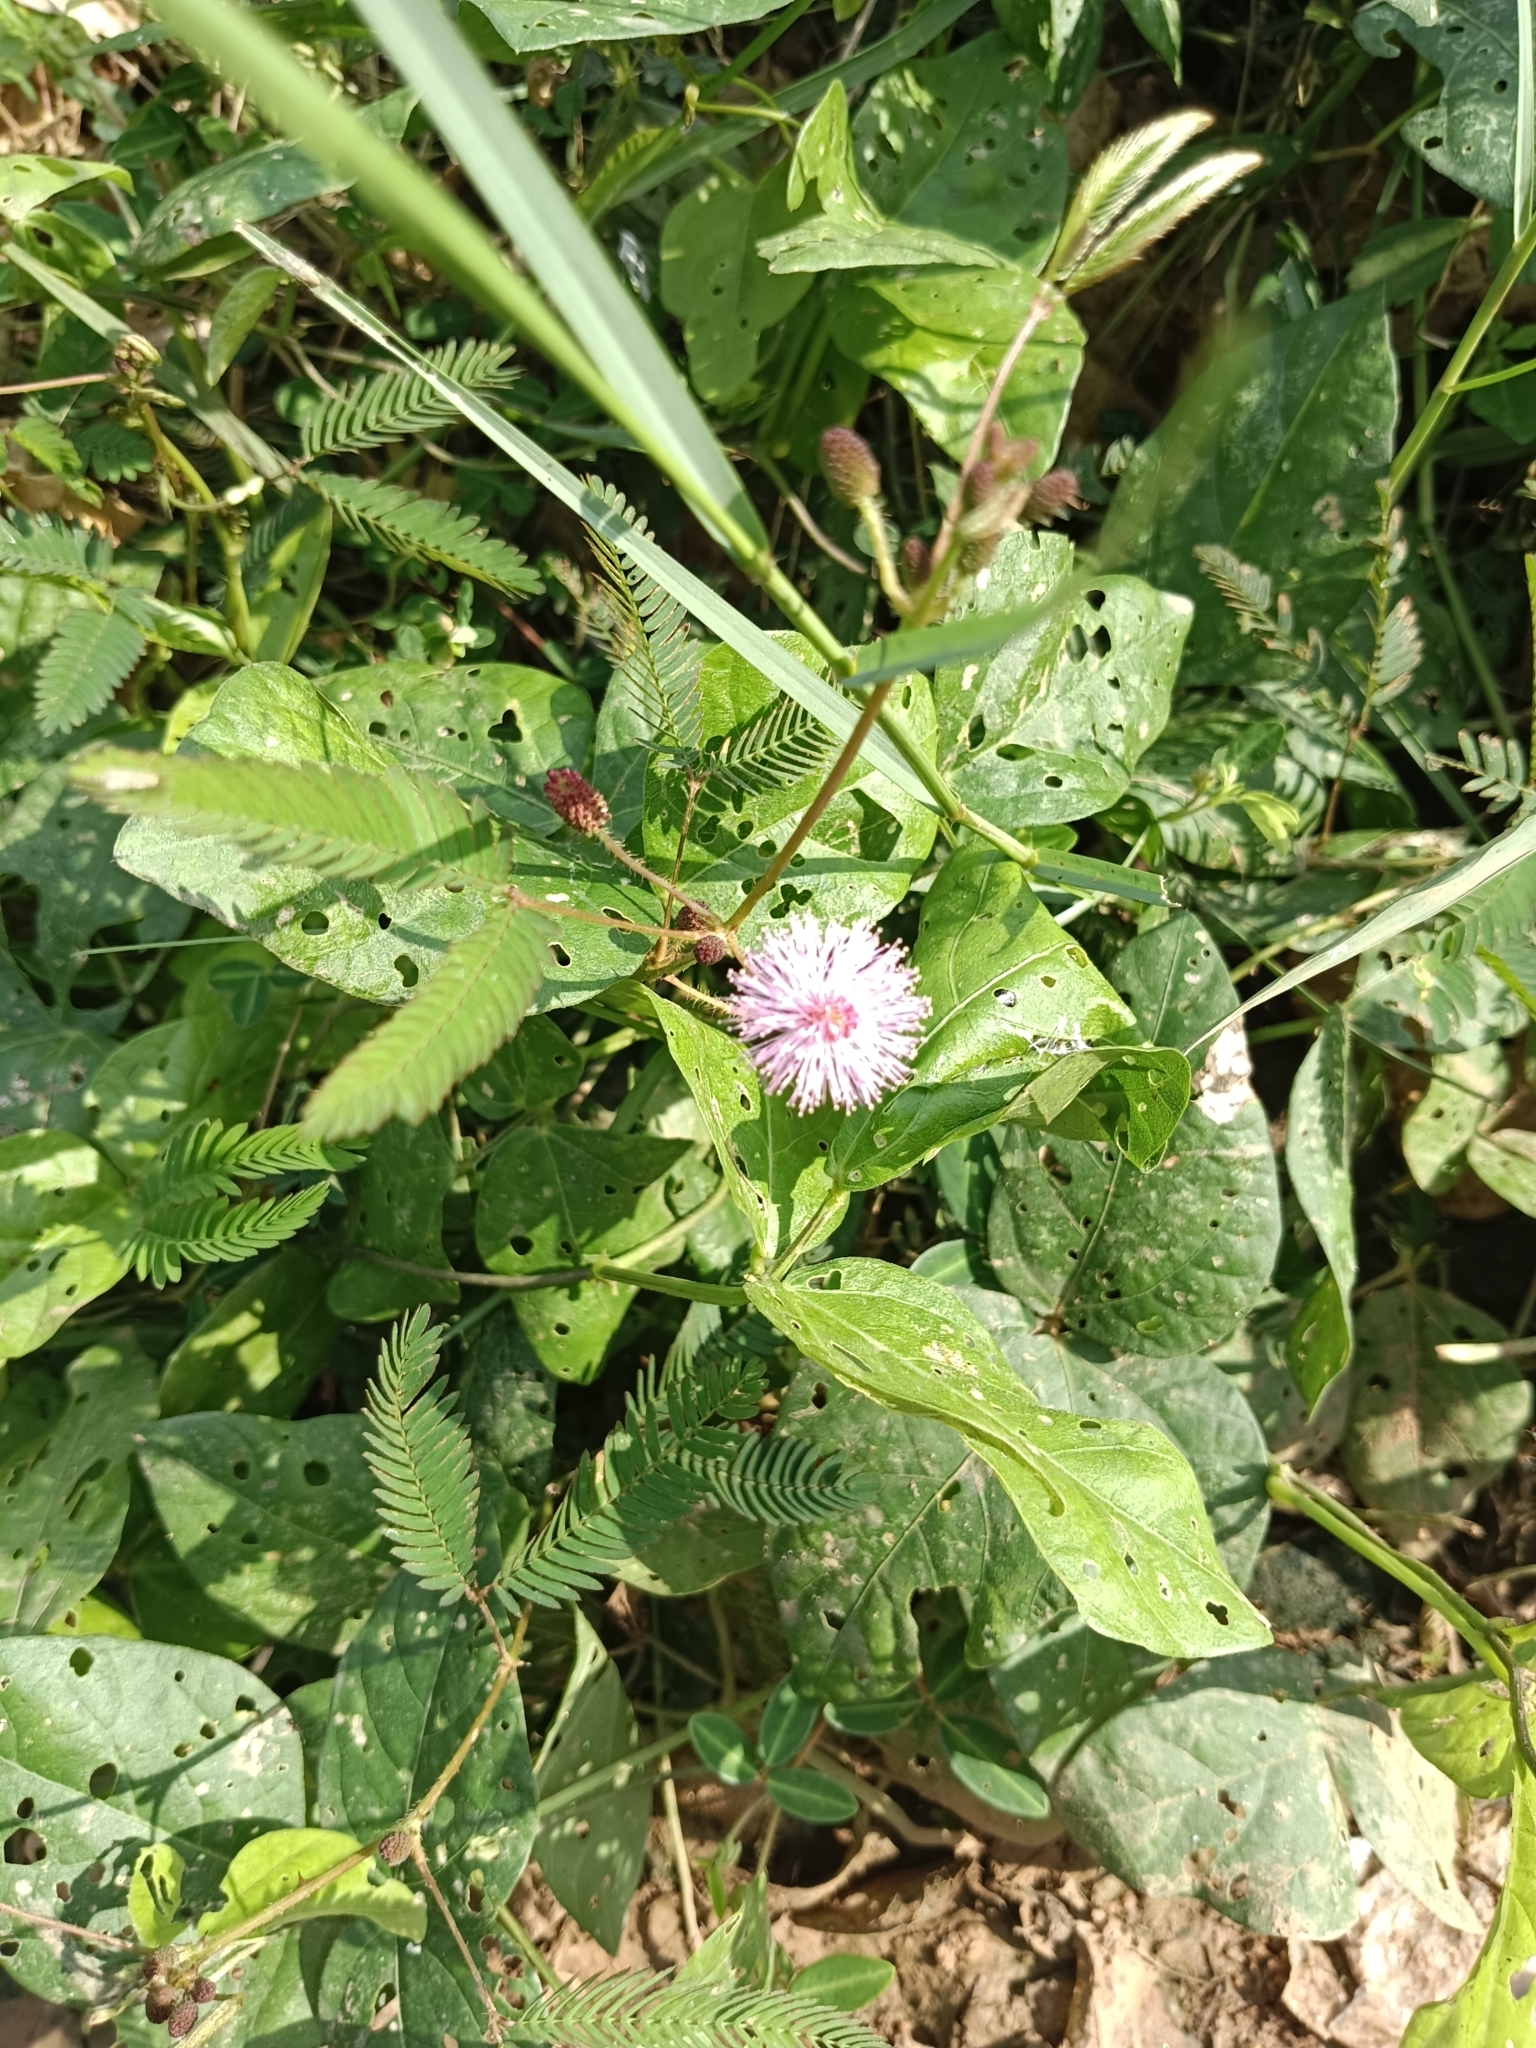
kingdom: Plantae
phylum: Tracheophyta
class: Magnoliopsida
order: Fabales
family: Fabaceae
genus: Mimosa
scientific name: Mimosa pudica
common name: Sensitive plant
